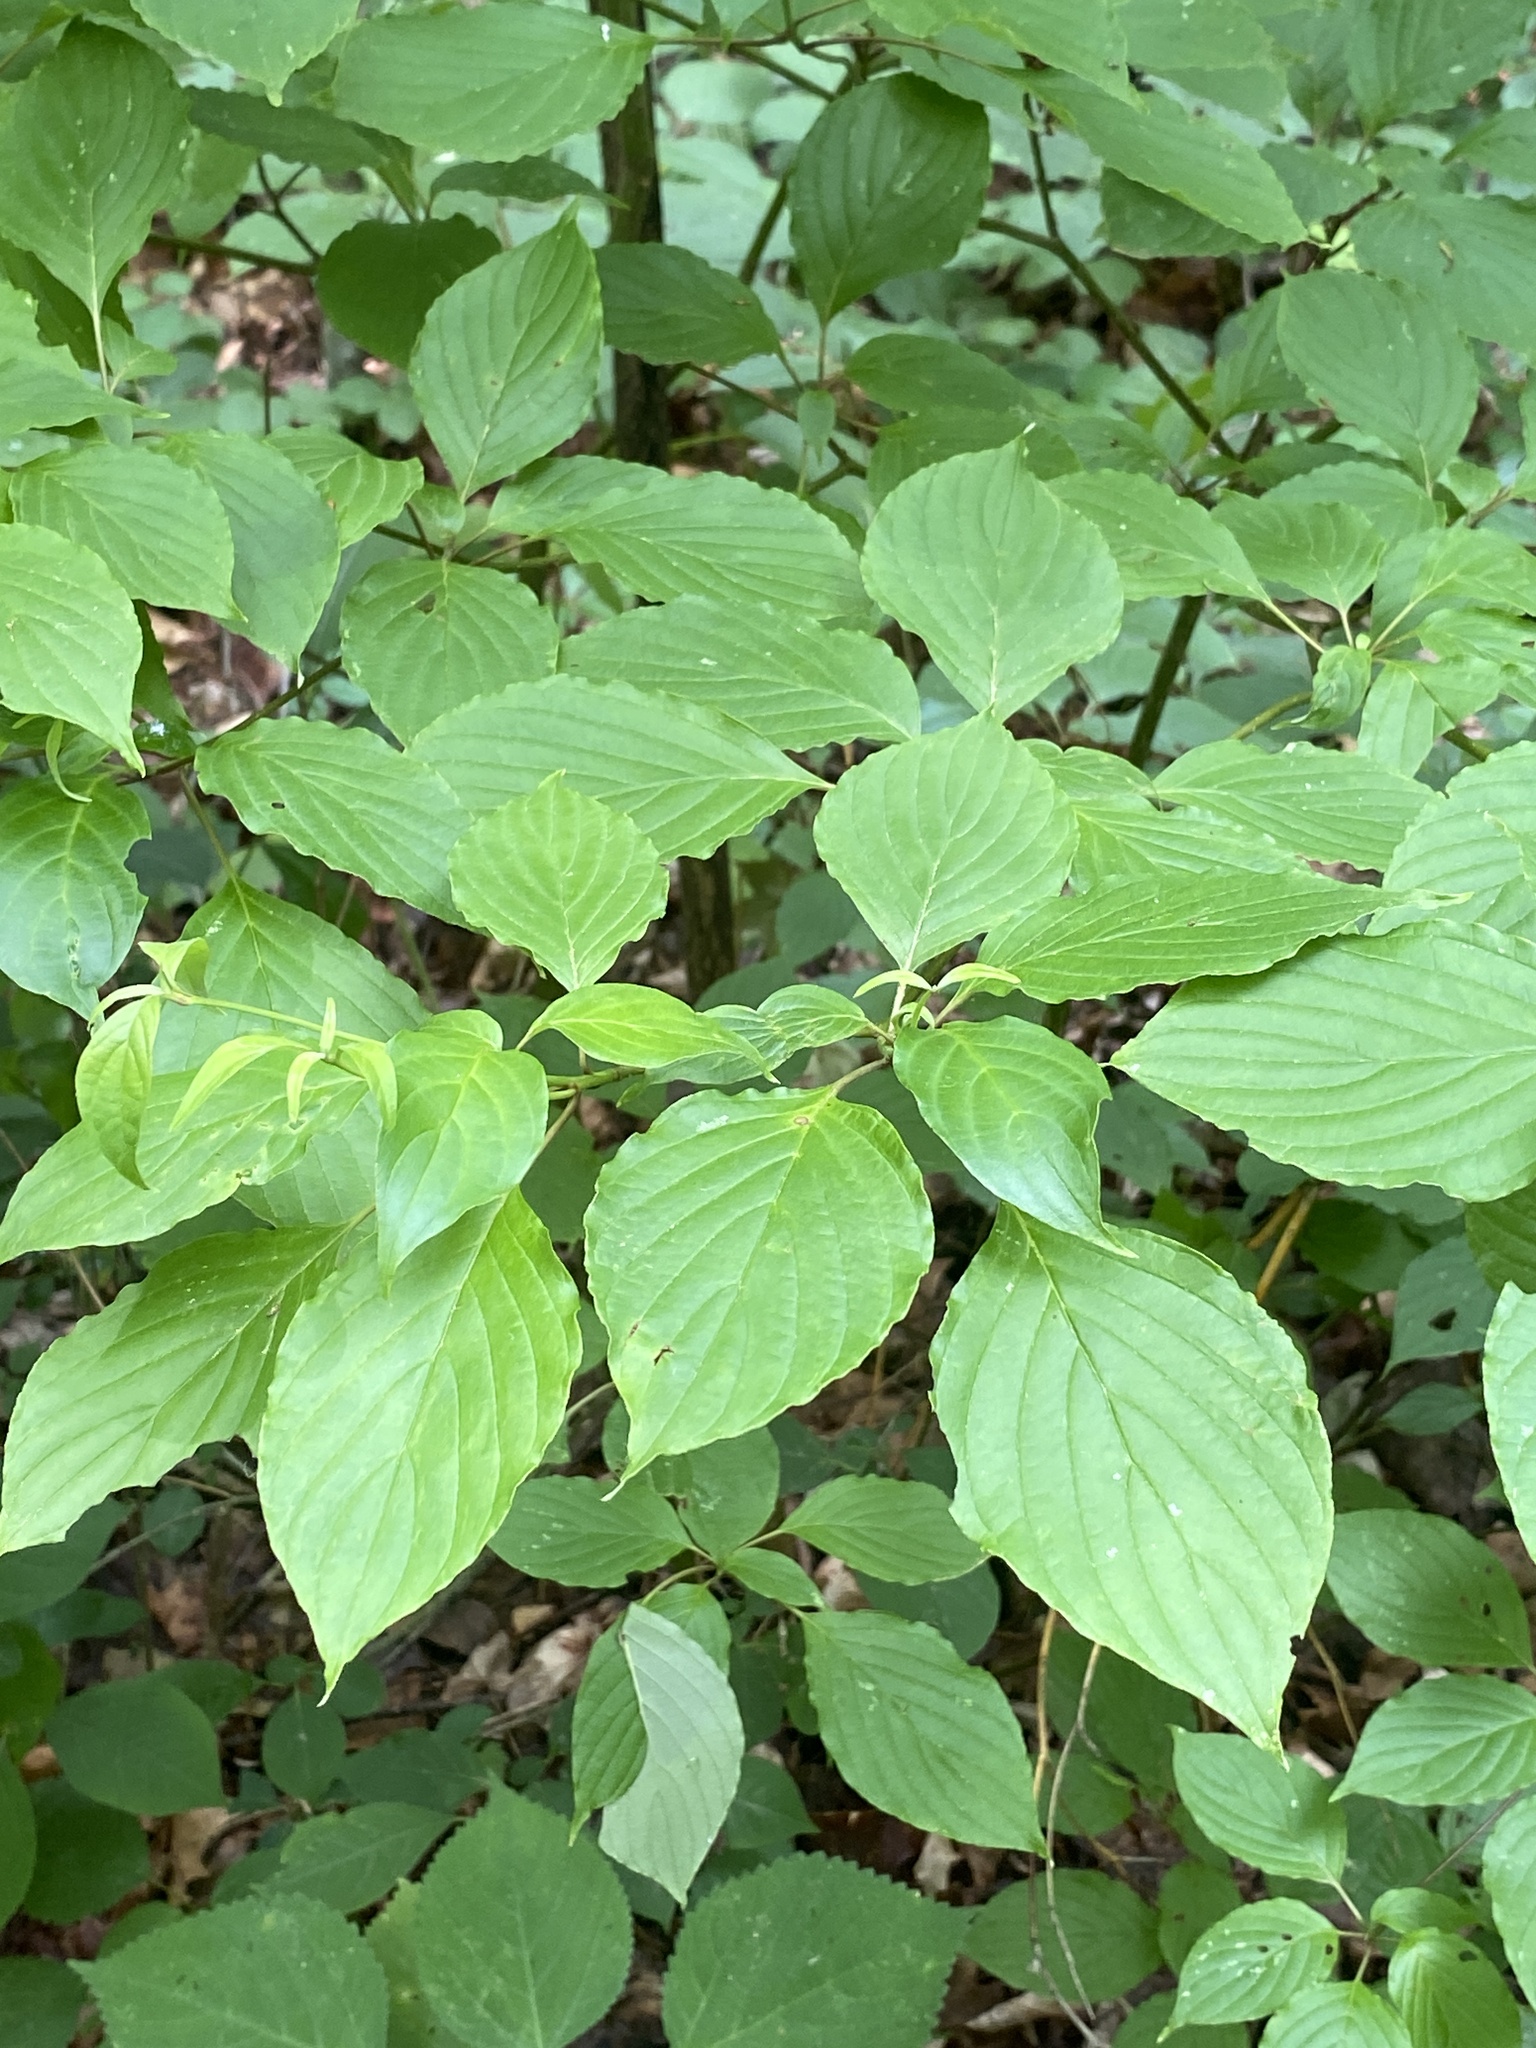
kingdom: Plantae
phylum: Tracheophyta
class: Magnoliopsida
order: Cornales
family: Cornaceae
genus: Cornus
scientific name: Cornus alternifolia
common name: Pagoda dogwood
